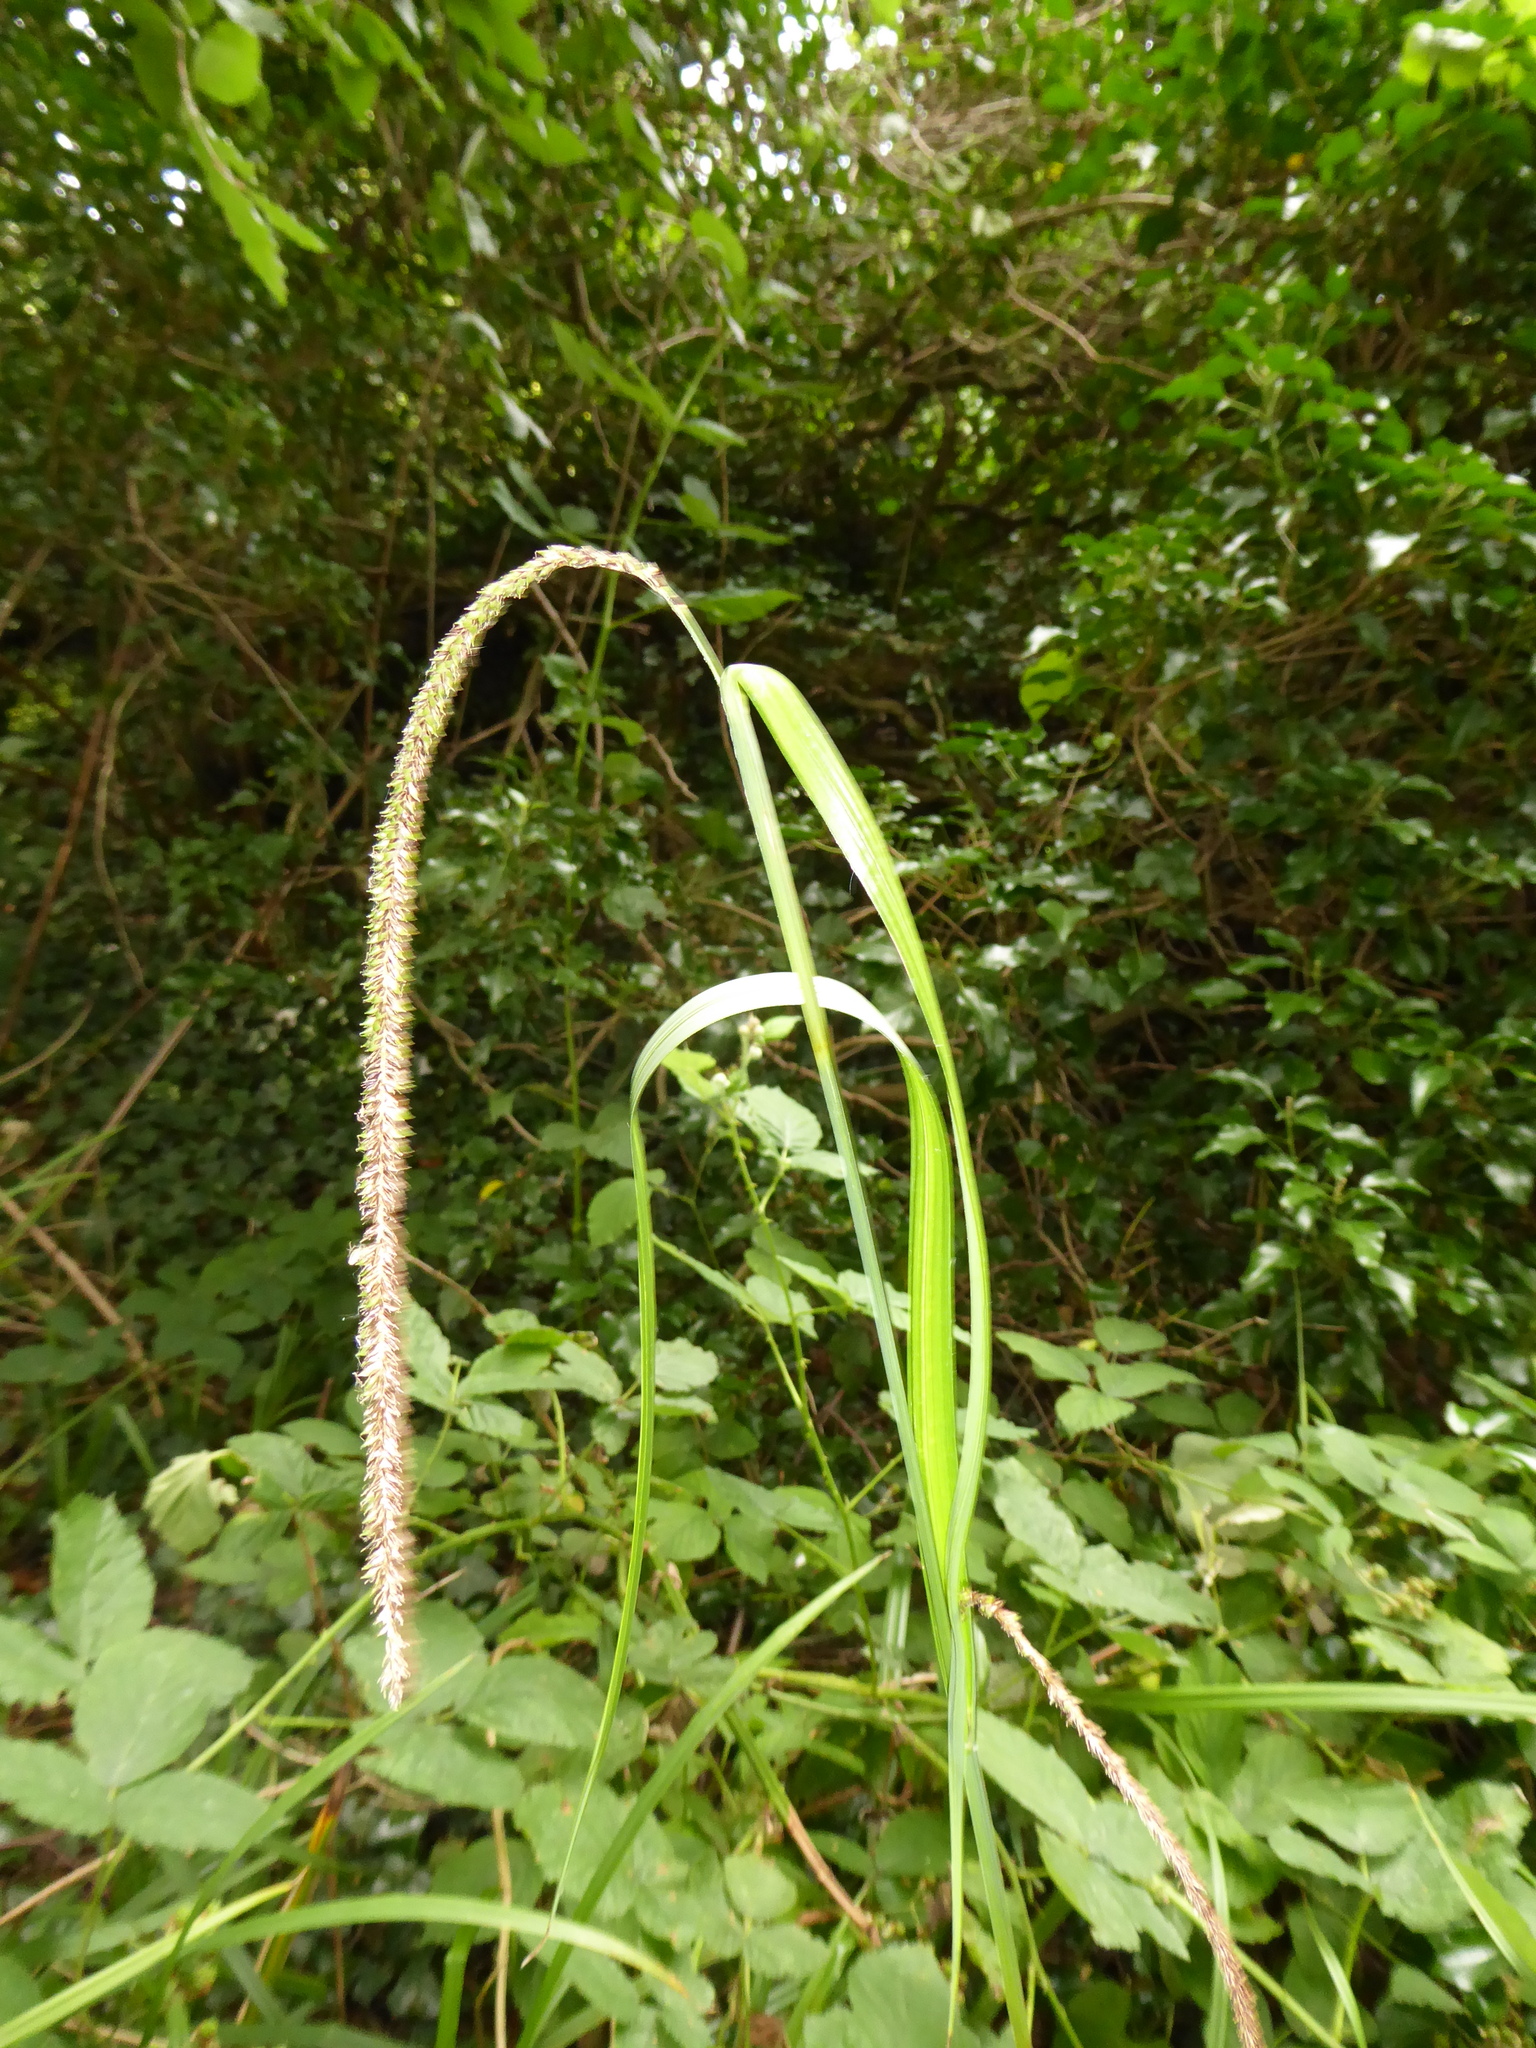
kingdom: Plantae
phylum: Tracheophyta
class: Liliopsida
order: Poales
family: Cyperaceae
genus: Carex
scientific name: Carex pendula
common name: Pendulous sedge
